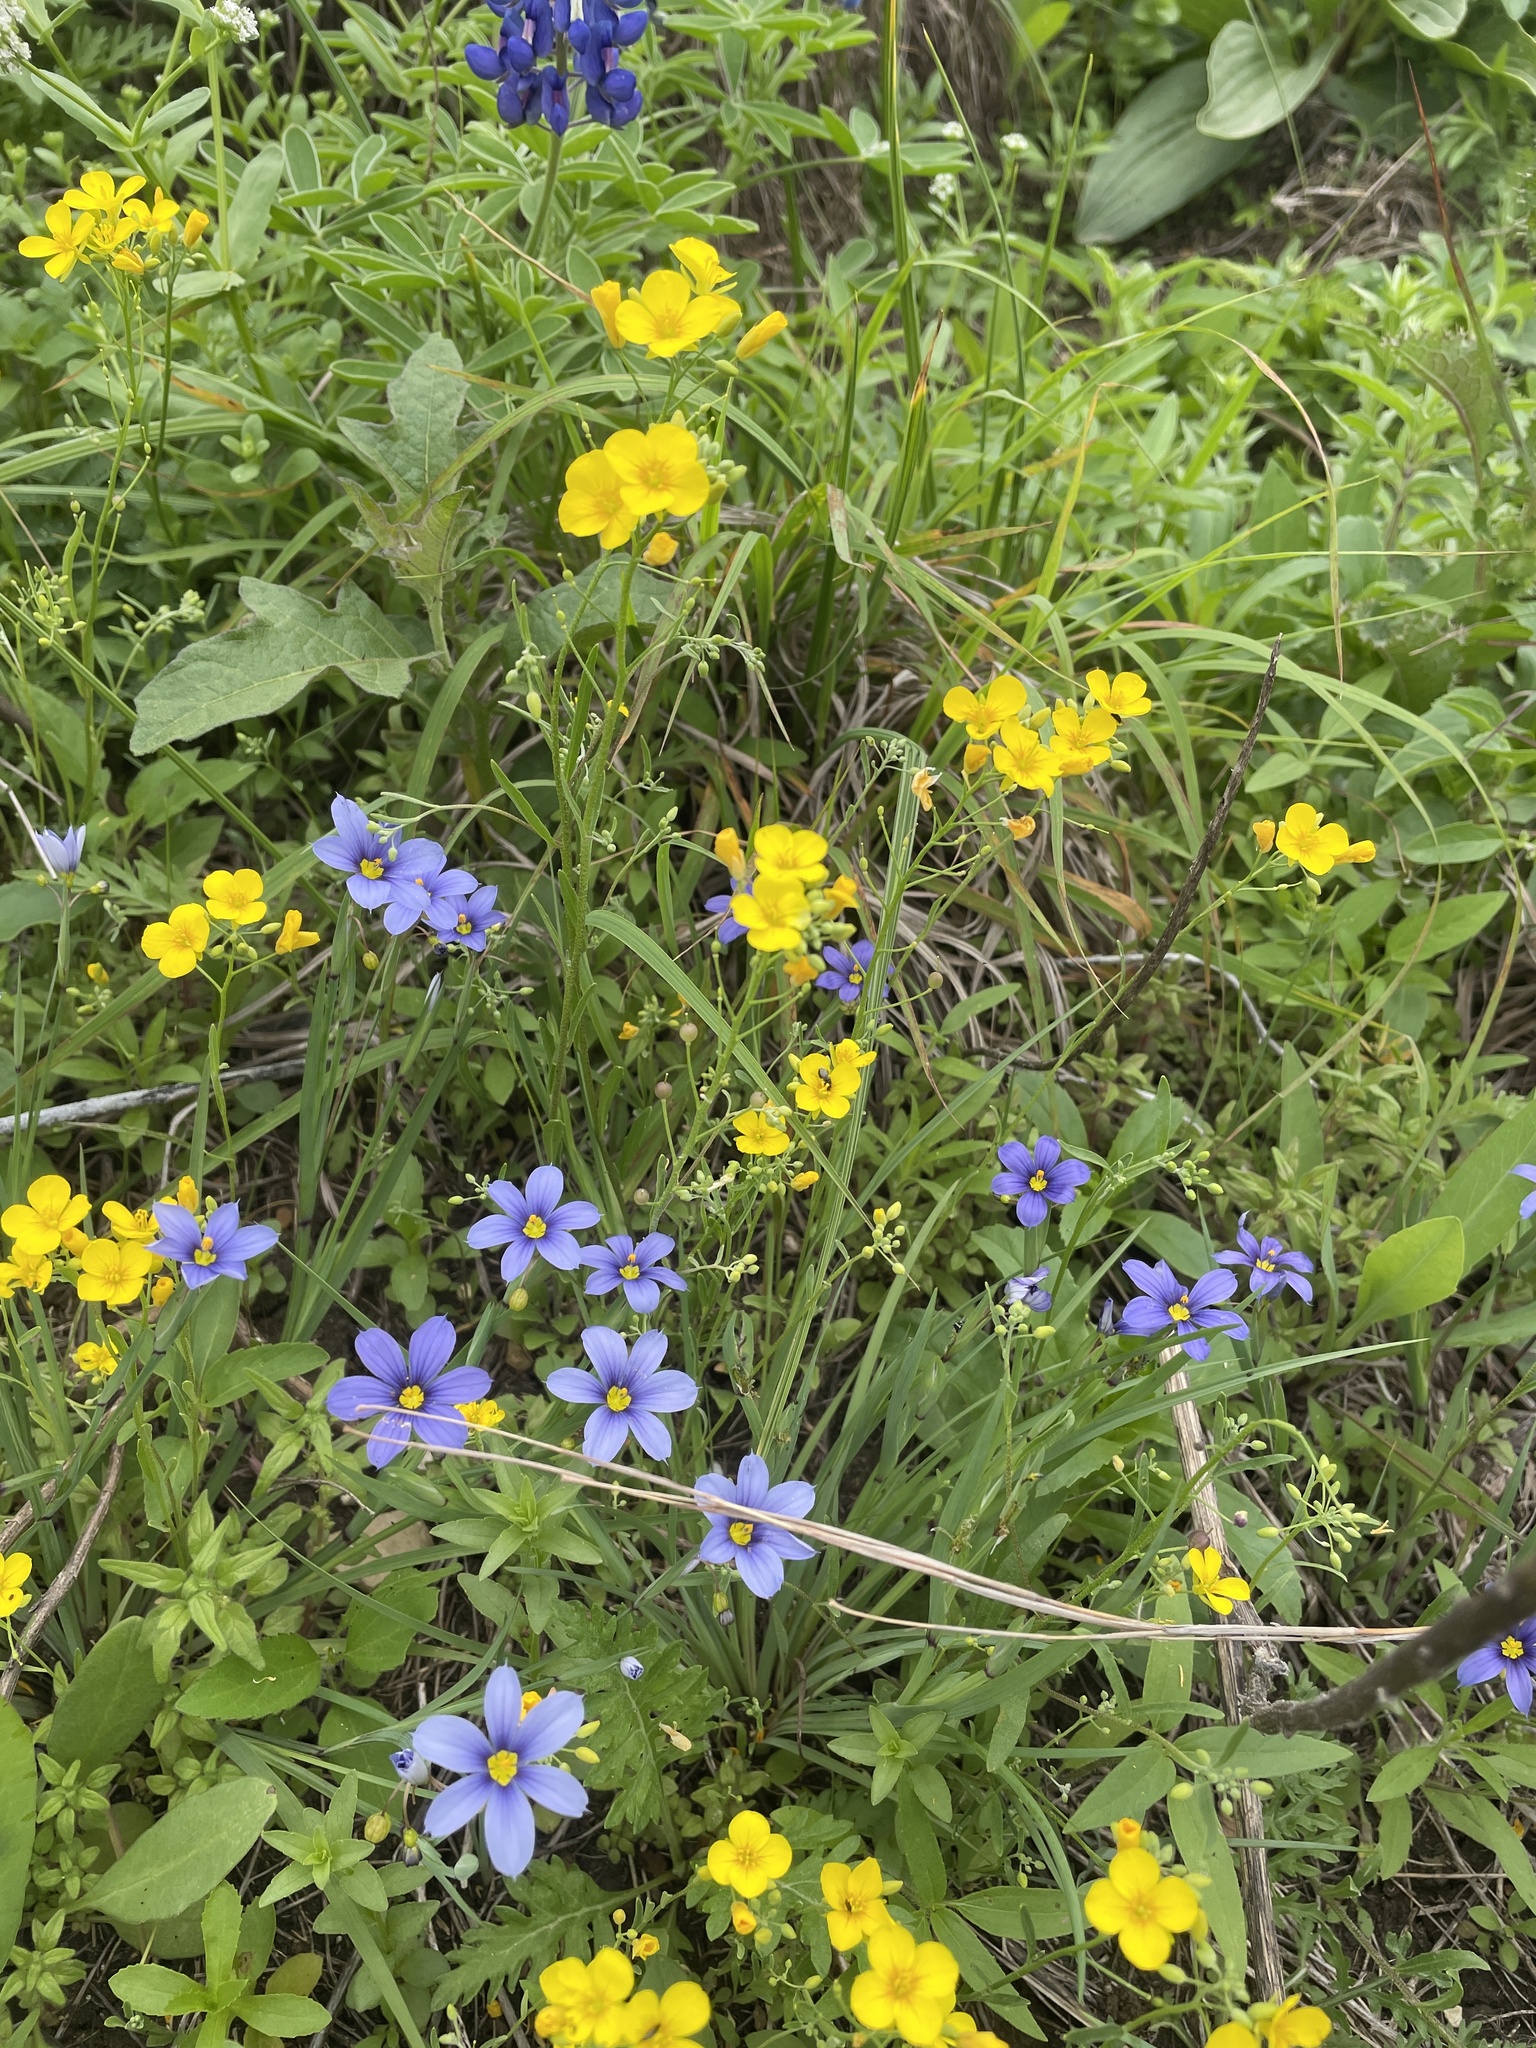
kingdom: Plantae
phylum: Tracheophyta
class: Magnoliopsida
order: Brassicales
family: Brassicaceae
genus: Physaria
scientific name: Physaria gracilis
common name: Spreading bladderpod
